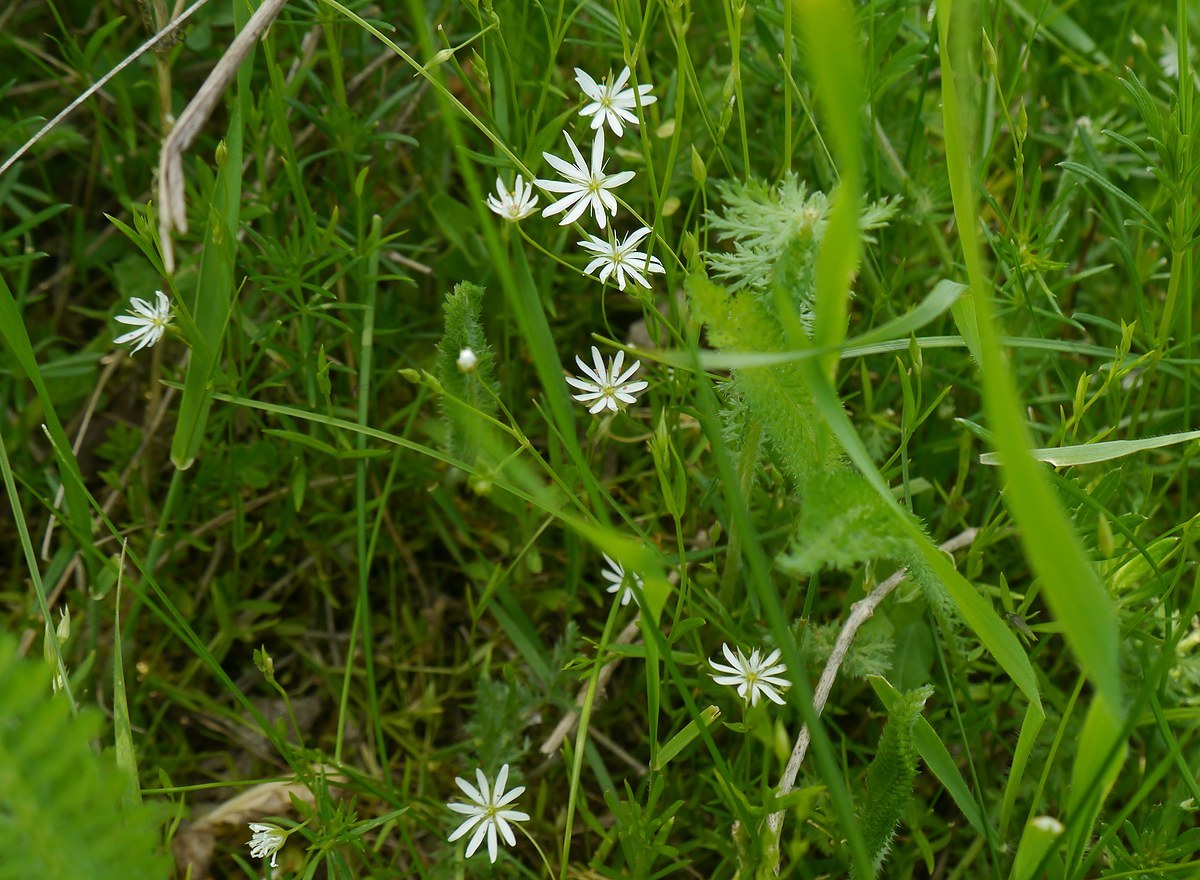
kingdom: Plantae
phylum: Tracheophyta
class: Magnoliopsida
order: Caryophyllales
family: Caryophyllaceae
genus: Stellaria
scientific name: Stellaria graminea
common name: Grass-like starwort
